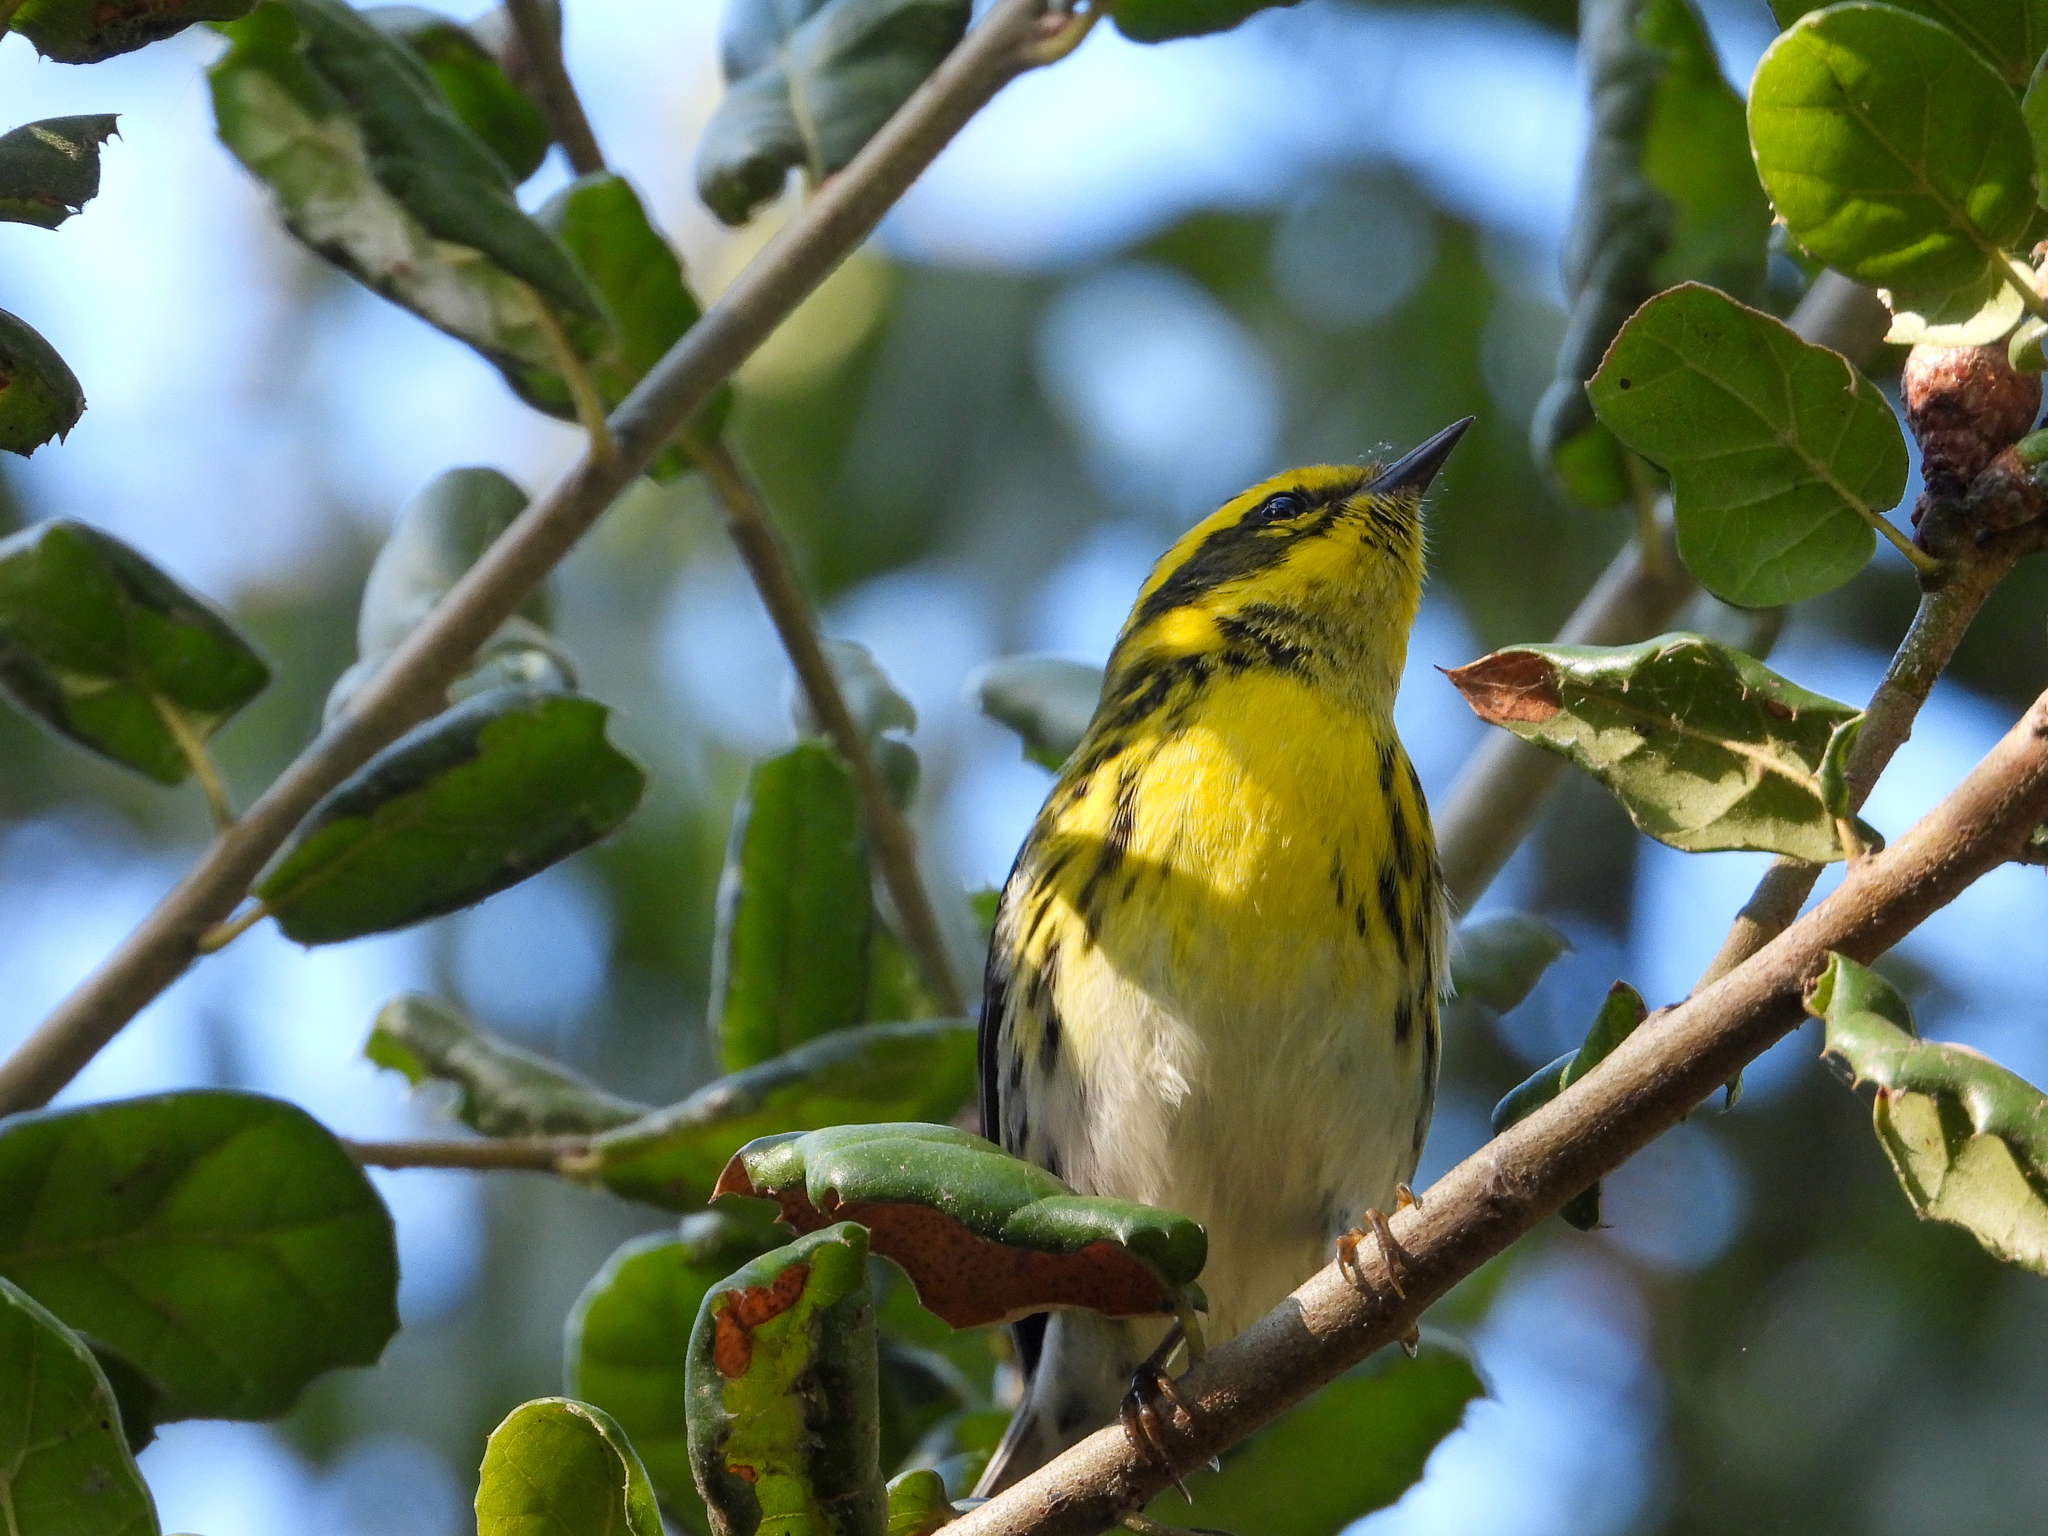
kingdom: Animalia
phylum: Chordata
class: Aves
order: Passeriformes
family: Parulidae
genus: Setophaga
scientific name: Setophaga townsendi
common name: Townsend's warbler
